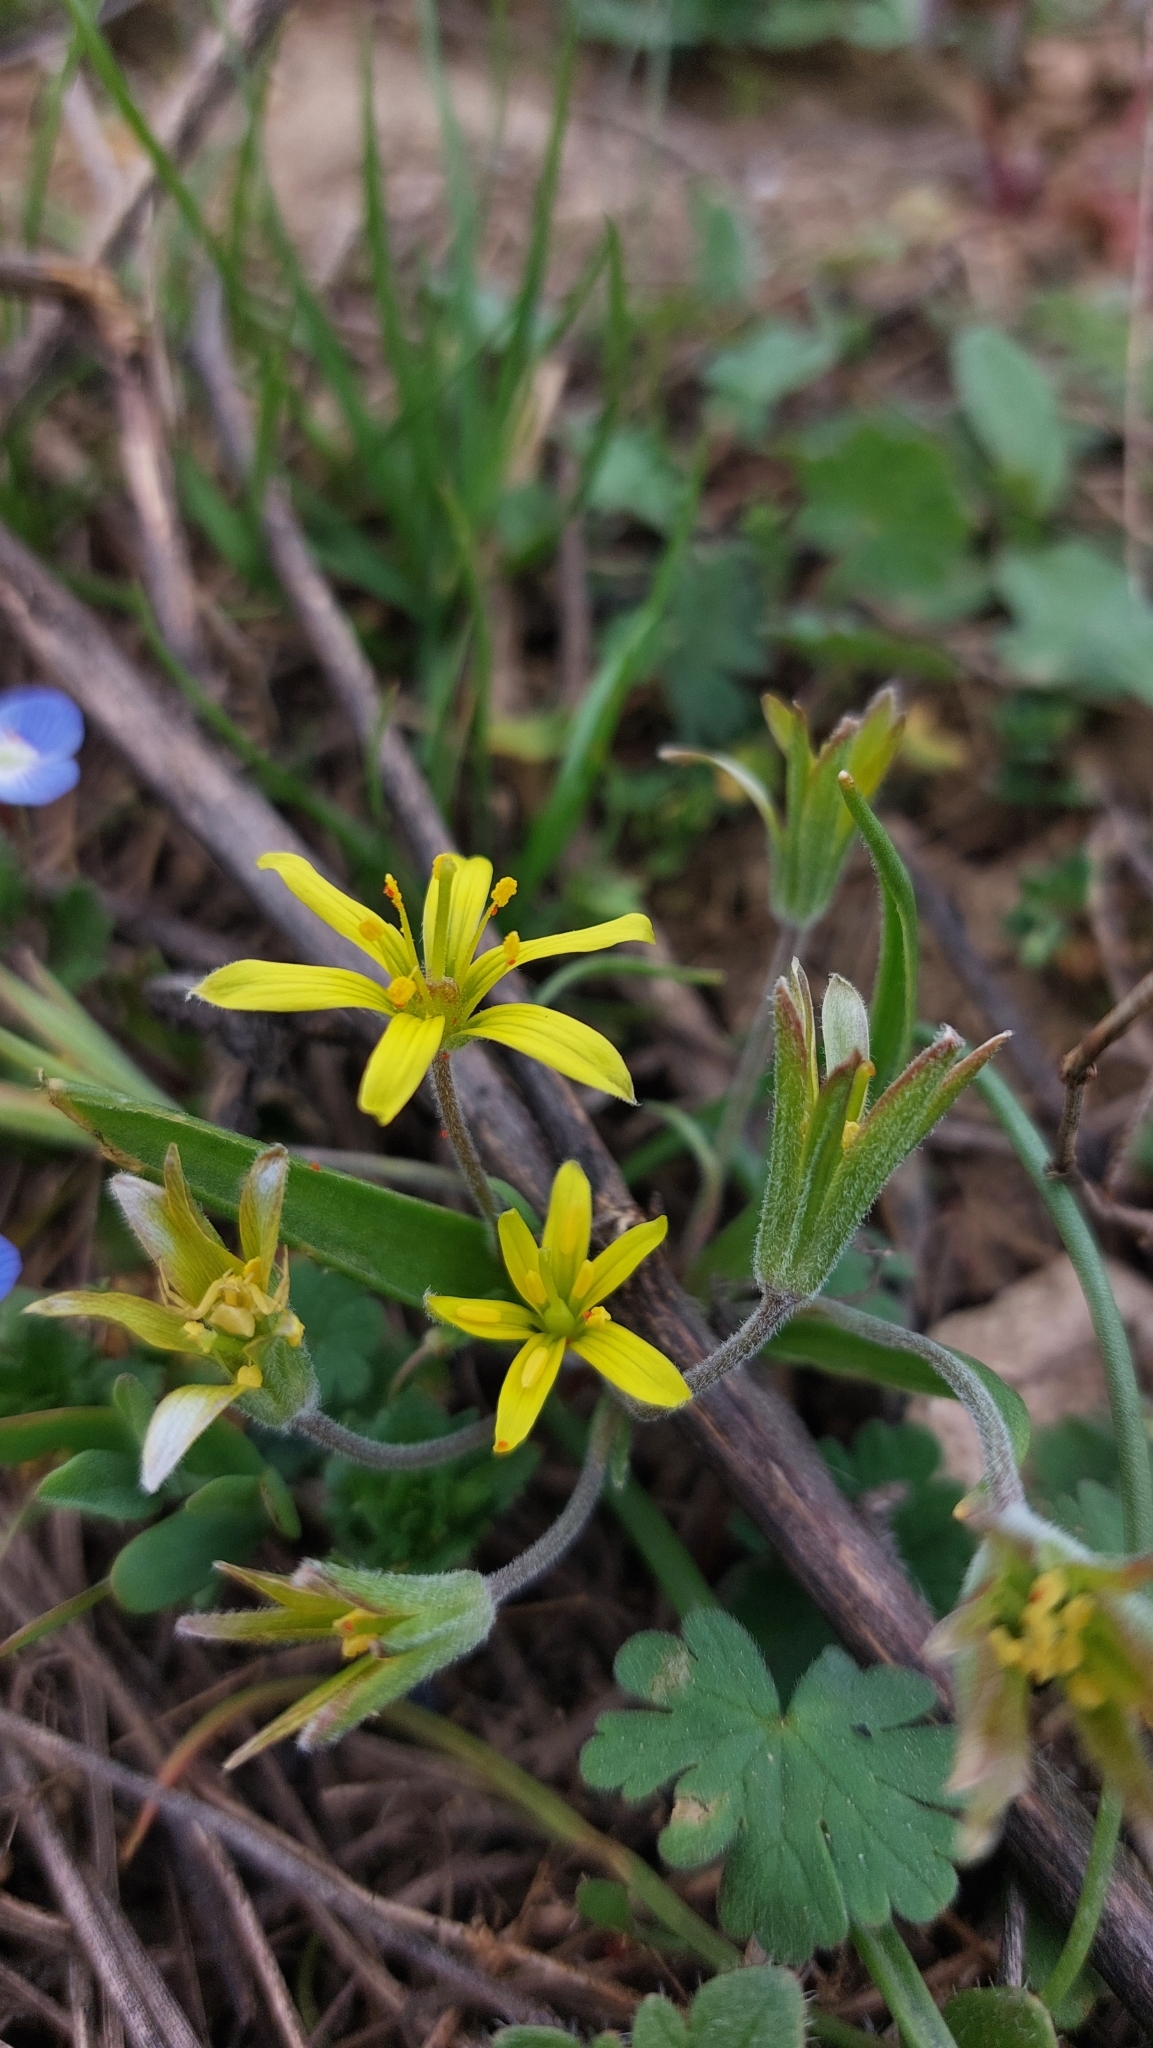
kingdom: Plantae
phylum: Tracheophyta
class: Liliopsida
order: Liliales
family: Liliaceae
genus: Gagea
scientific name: Gagea villosa
